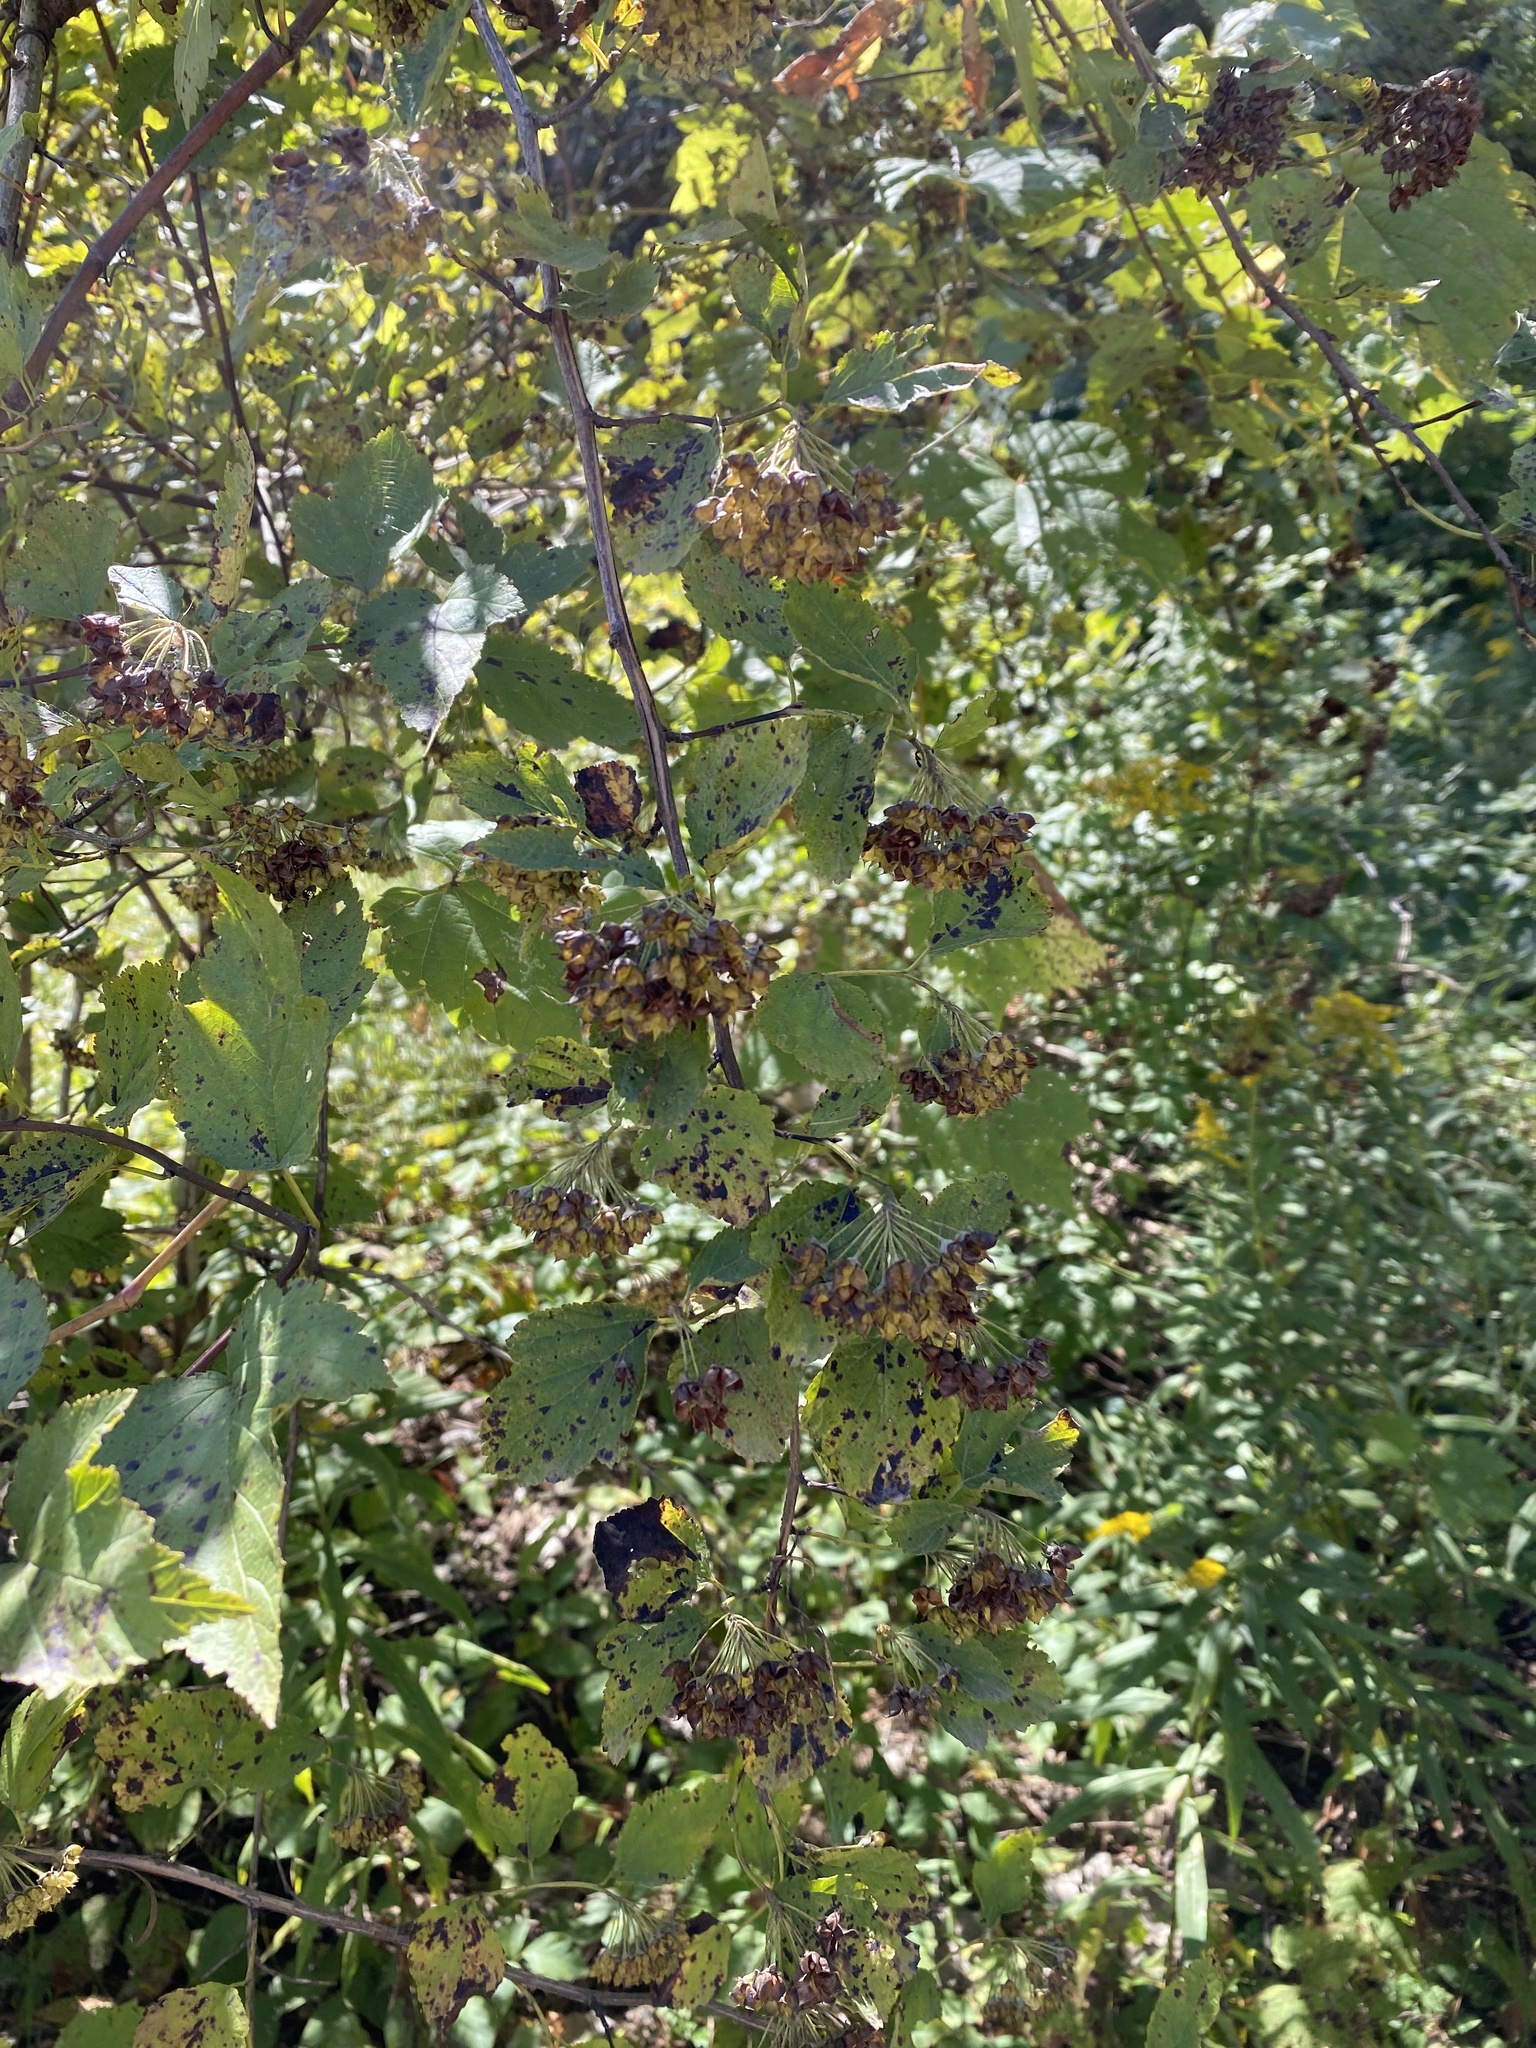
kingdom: Plantae
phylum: Tracheophyta
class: Magnoliopsida
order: Rosales
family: Rosaceae
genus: Physocarpus
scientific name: Physocarpus opulifolius
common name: Ninebark
